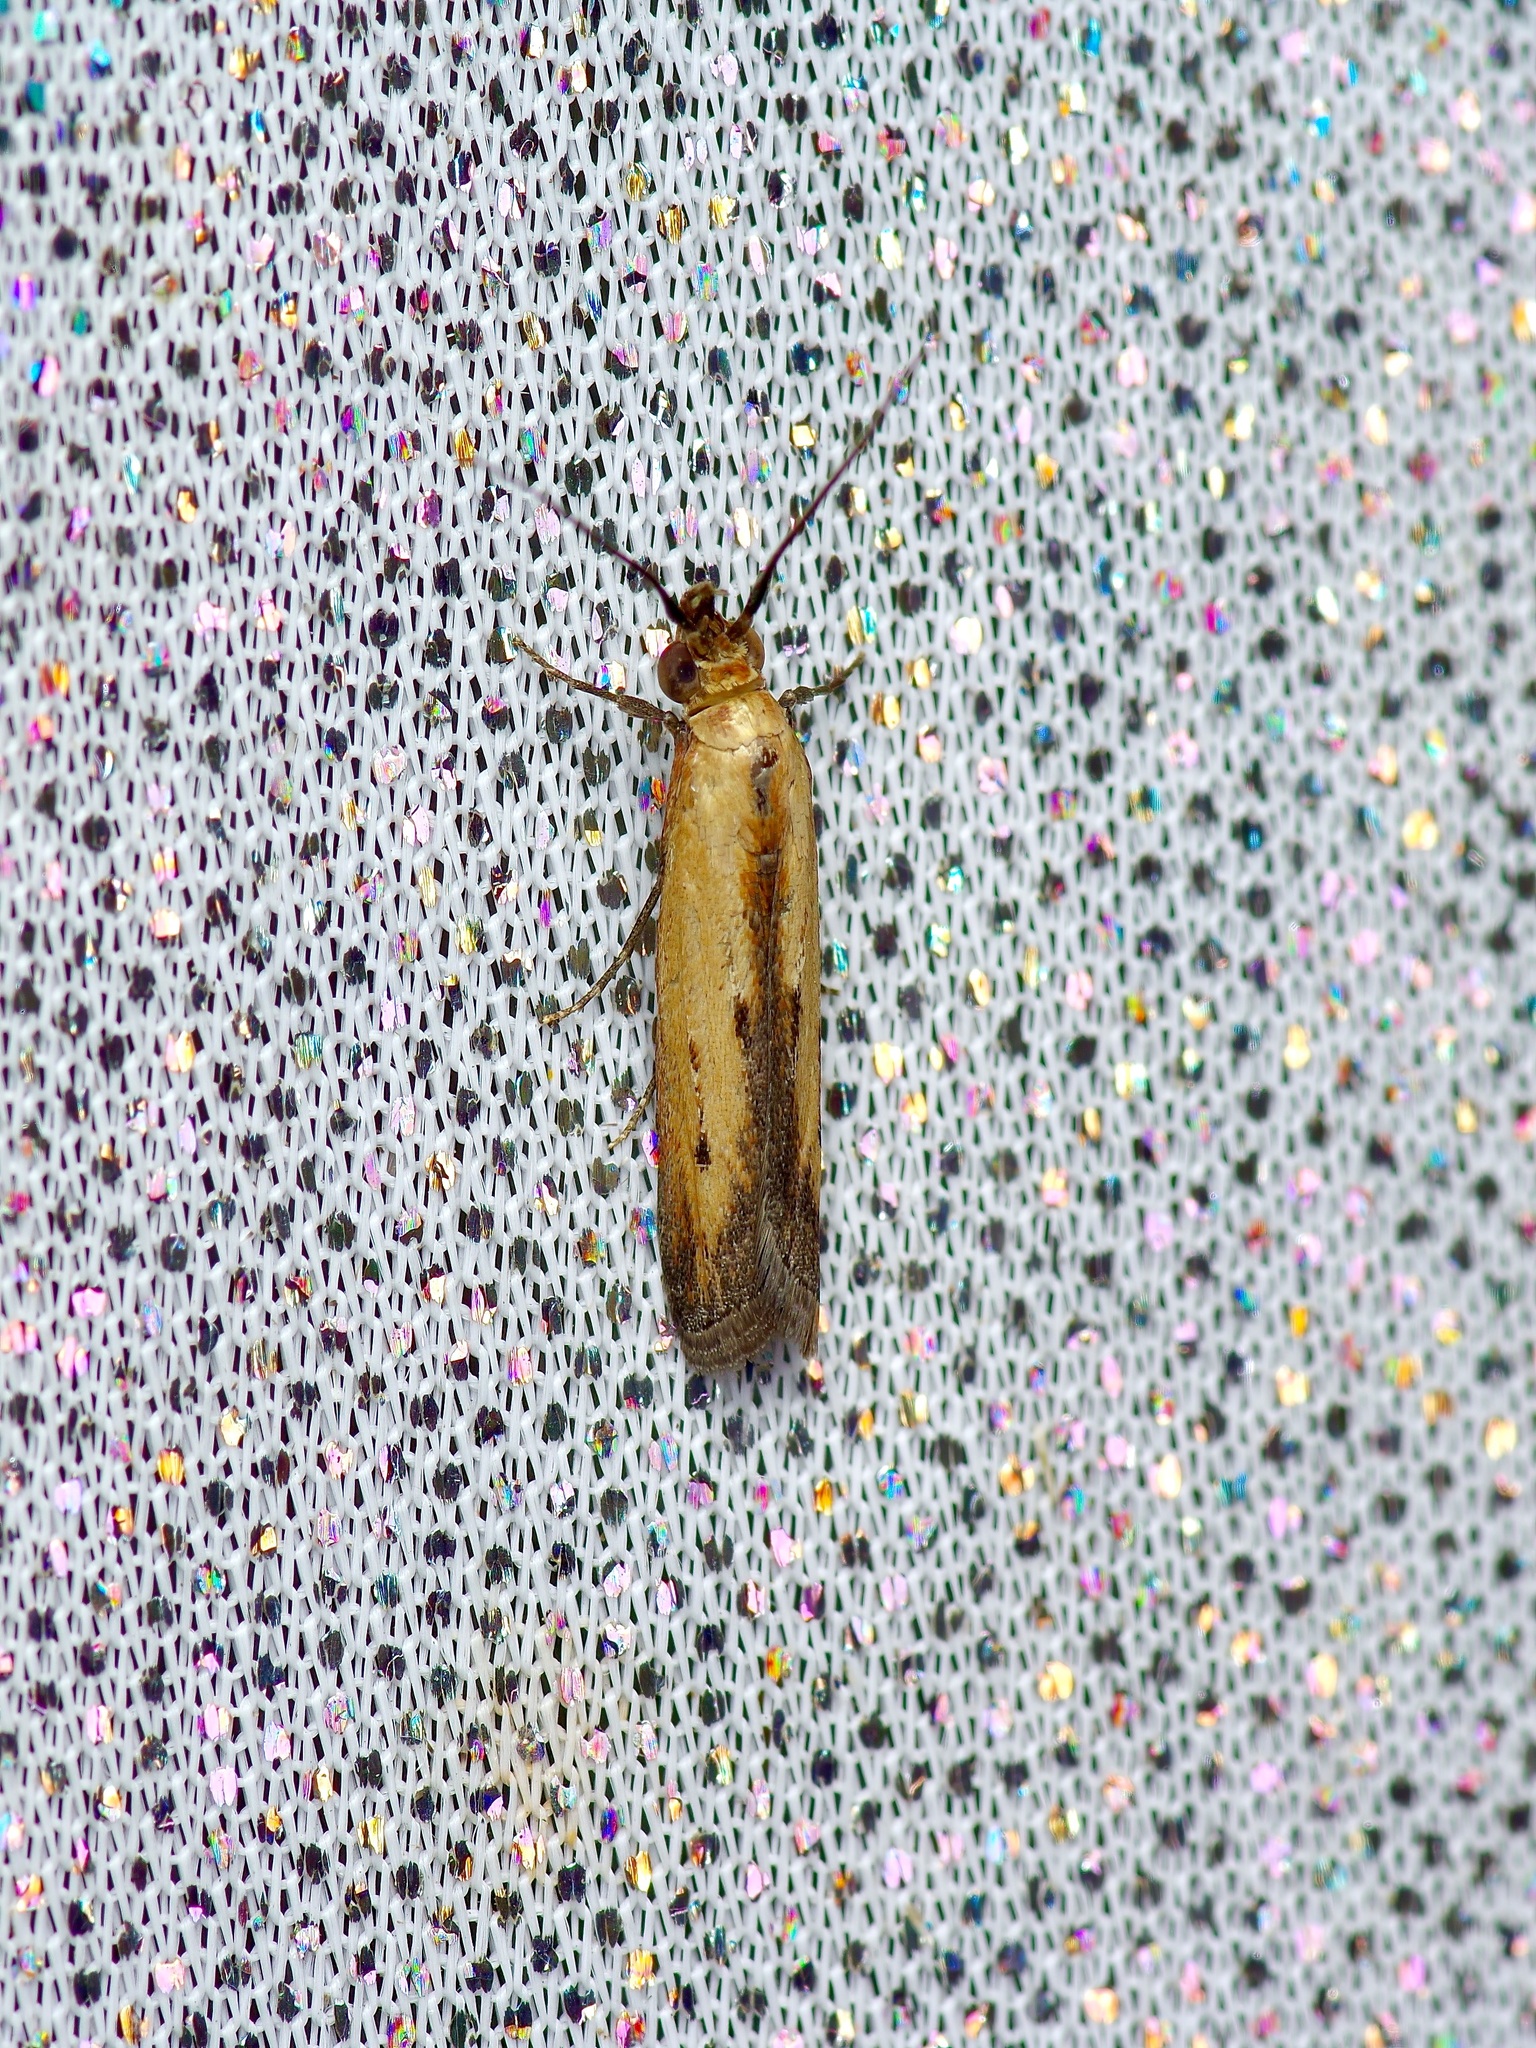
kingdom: Animalia
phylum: Arthropoda
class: Insecta
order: Lepidoptera
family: Pyralidae
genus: Elasmopalpus
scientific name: Elasmopalpus lignosella
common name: Lesser cornstalk borer
